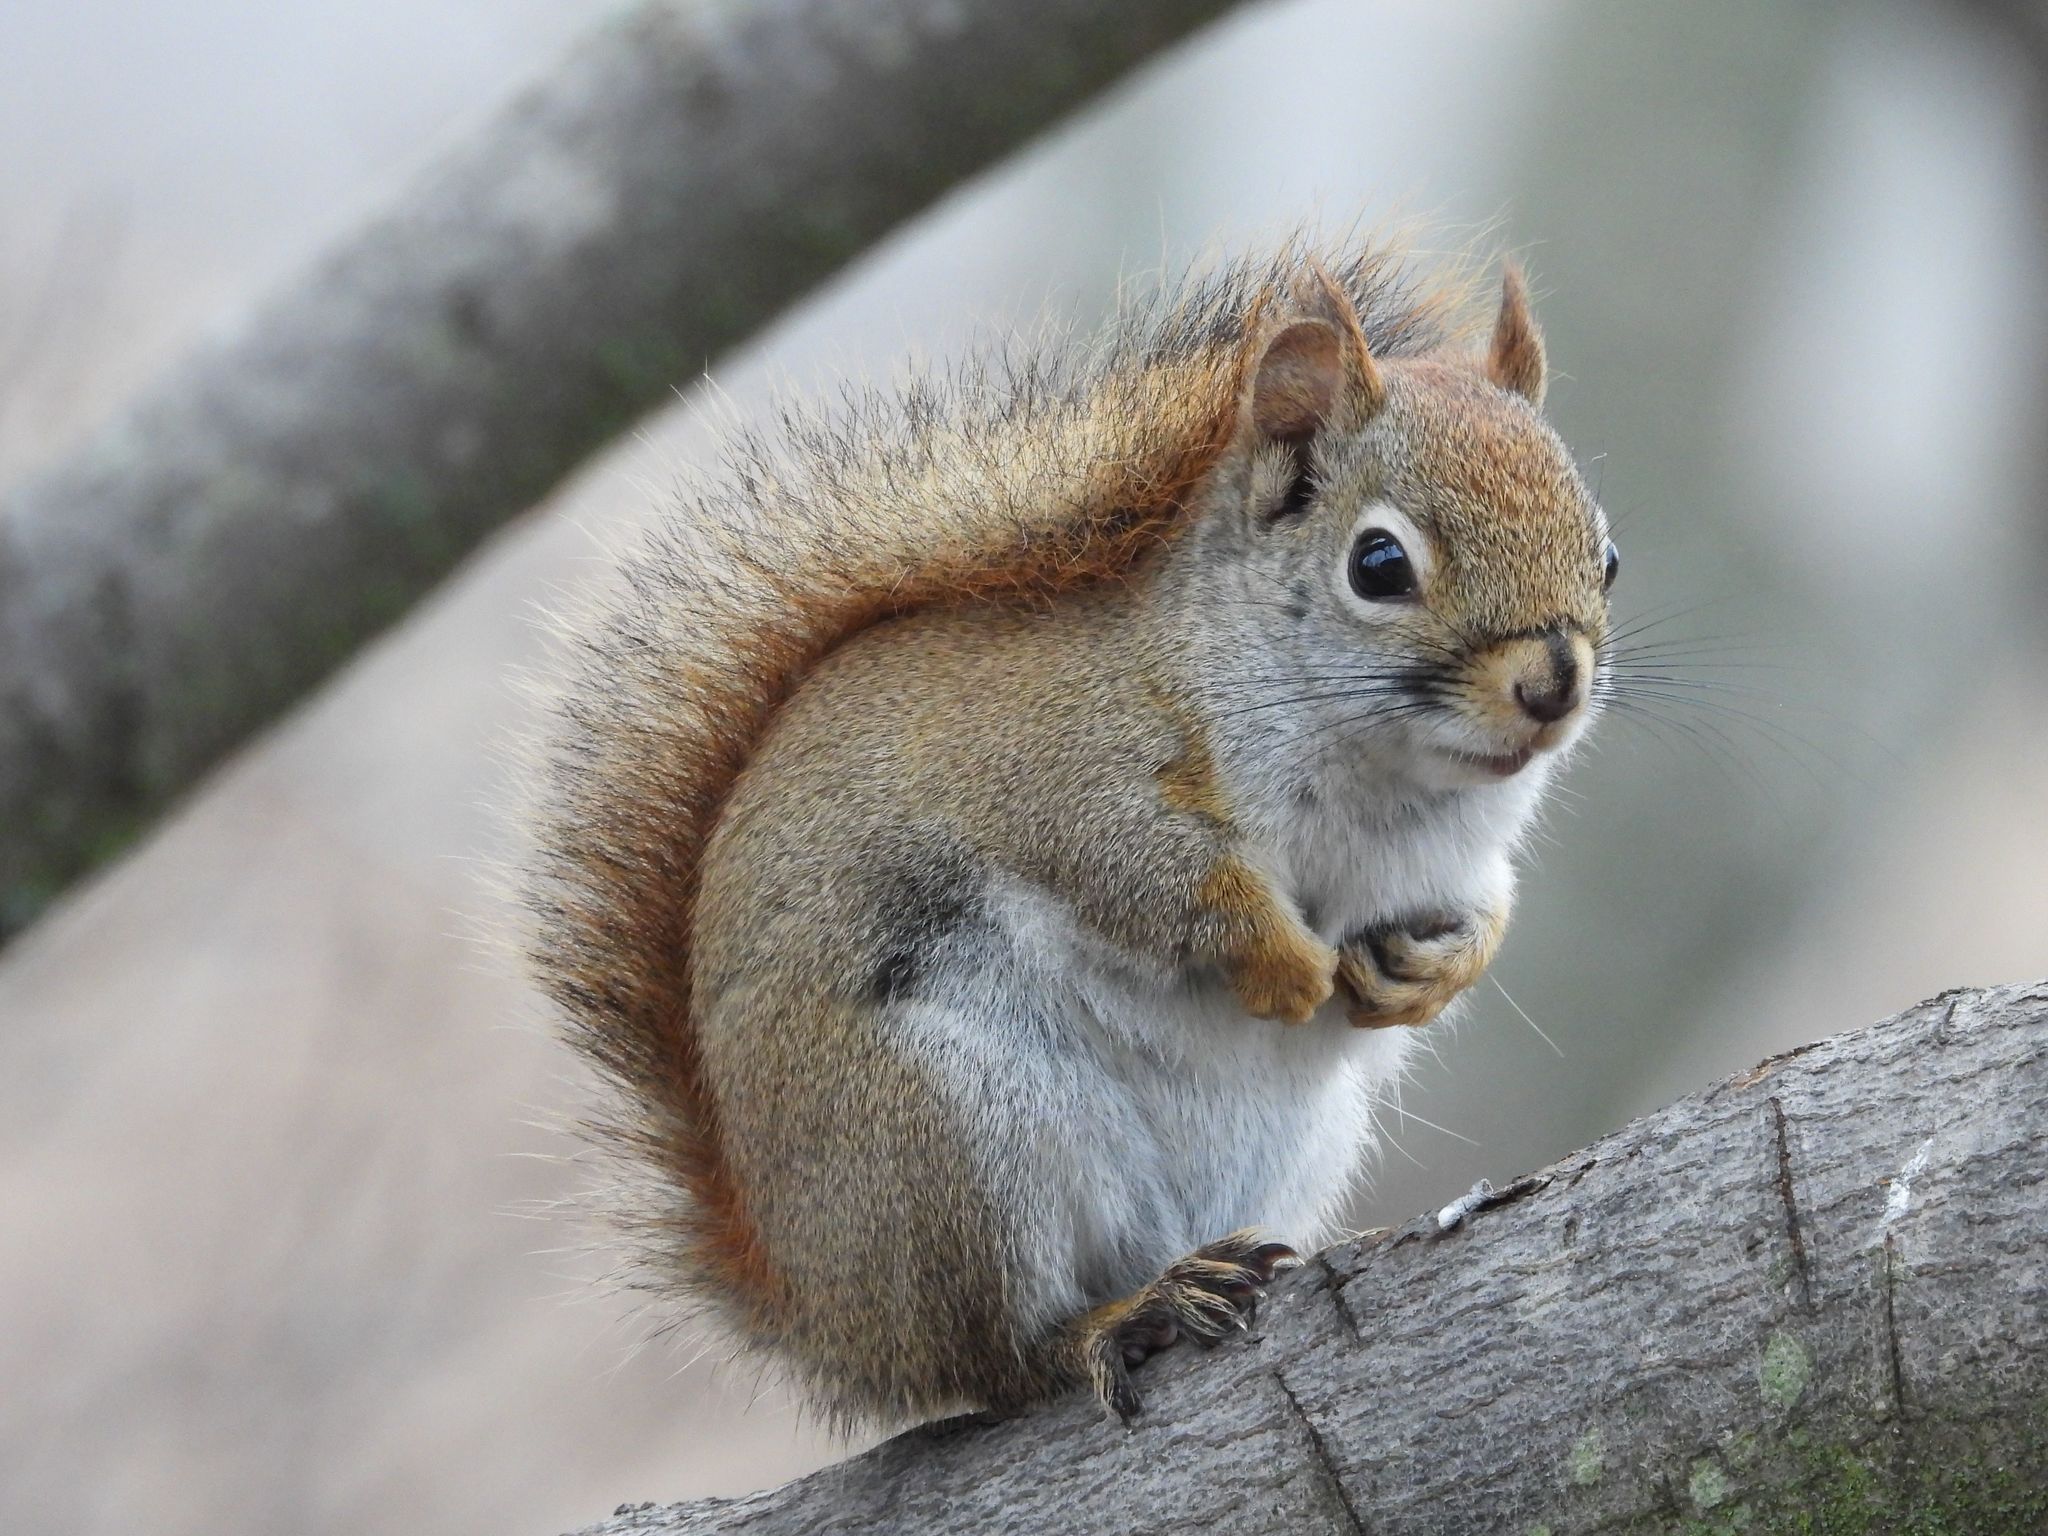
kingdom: Animalia
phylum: Chordata
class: Mammalia
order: Rodentia
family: Sciuridae
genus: Tamiasciurus
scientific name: Tamiasciurus hudsonicus
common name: Red squirrel
